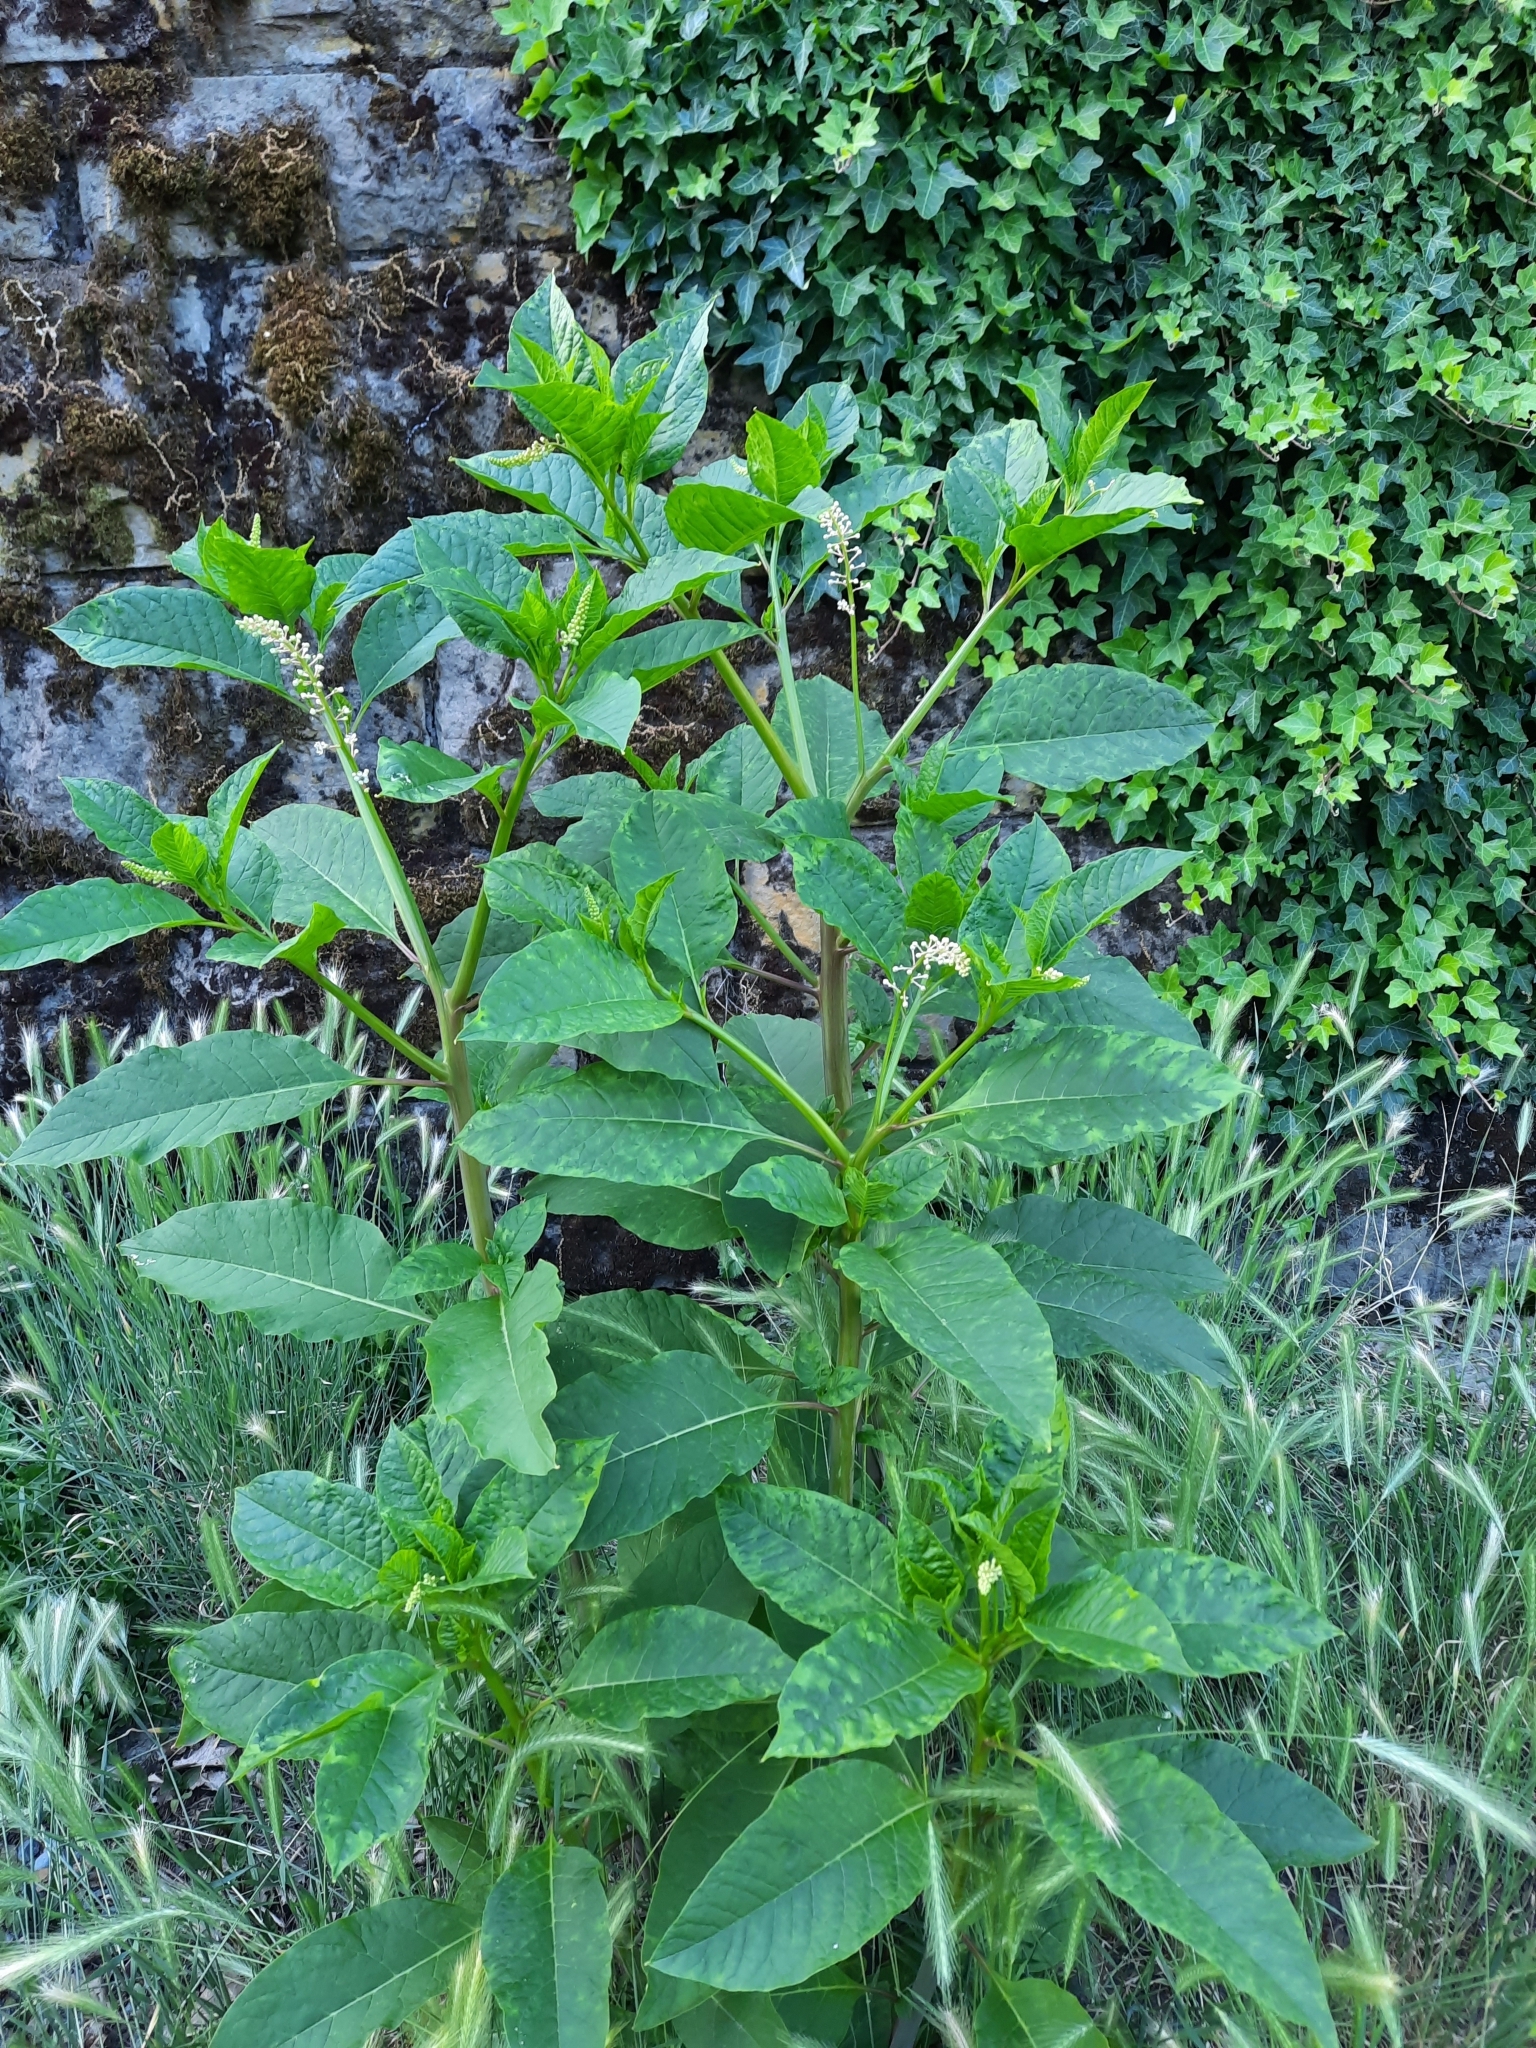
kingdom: Plantae
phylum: Tracheophyta
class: Magnoliopsida
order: Caryophyllales
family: Phytolaccaceae
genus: Phytolacca
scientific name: Phytolacca americana
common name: American pokeweed
